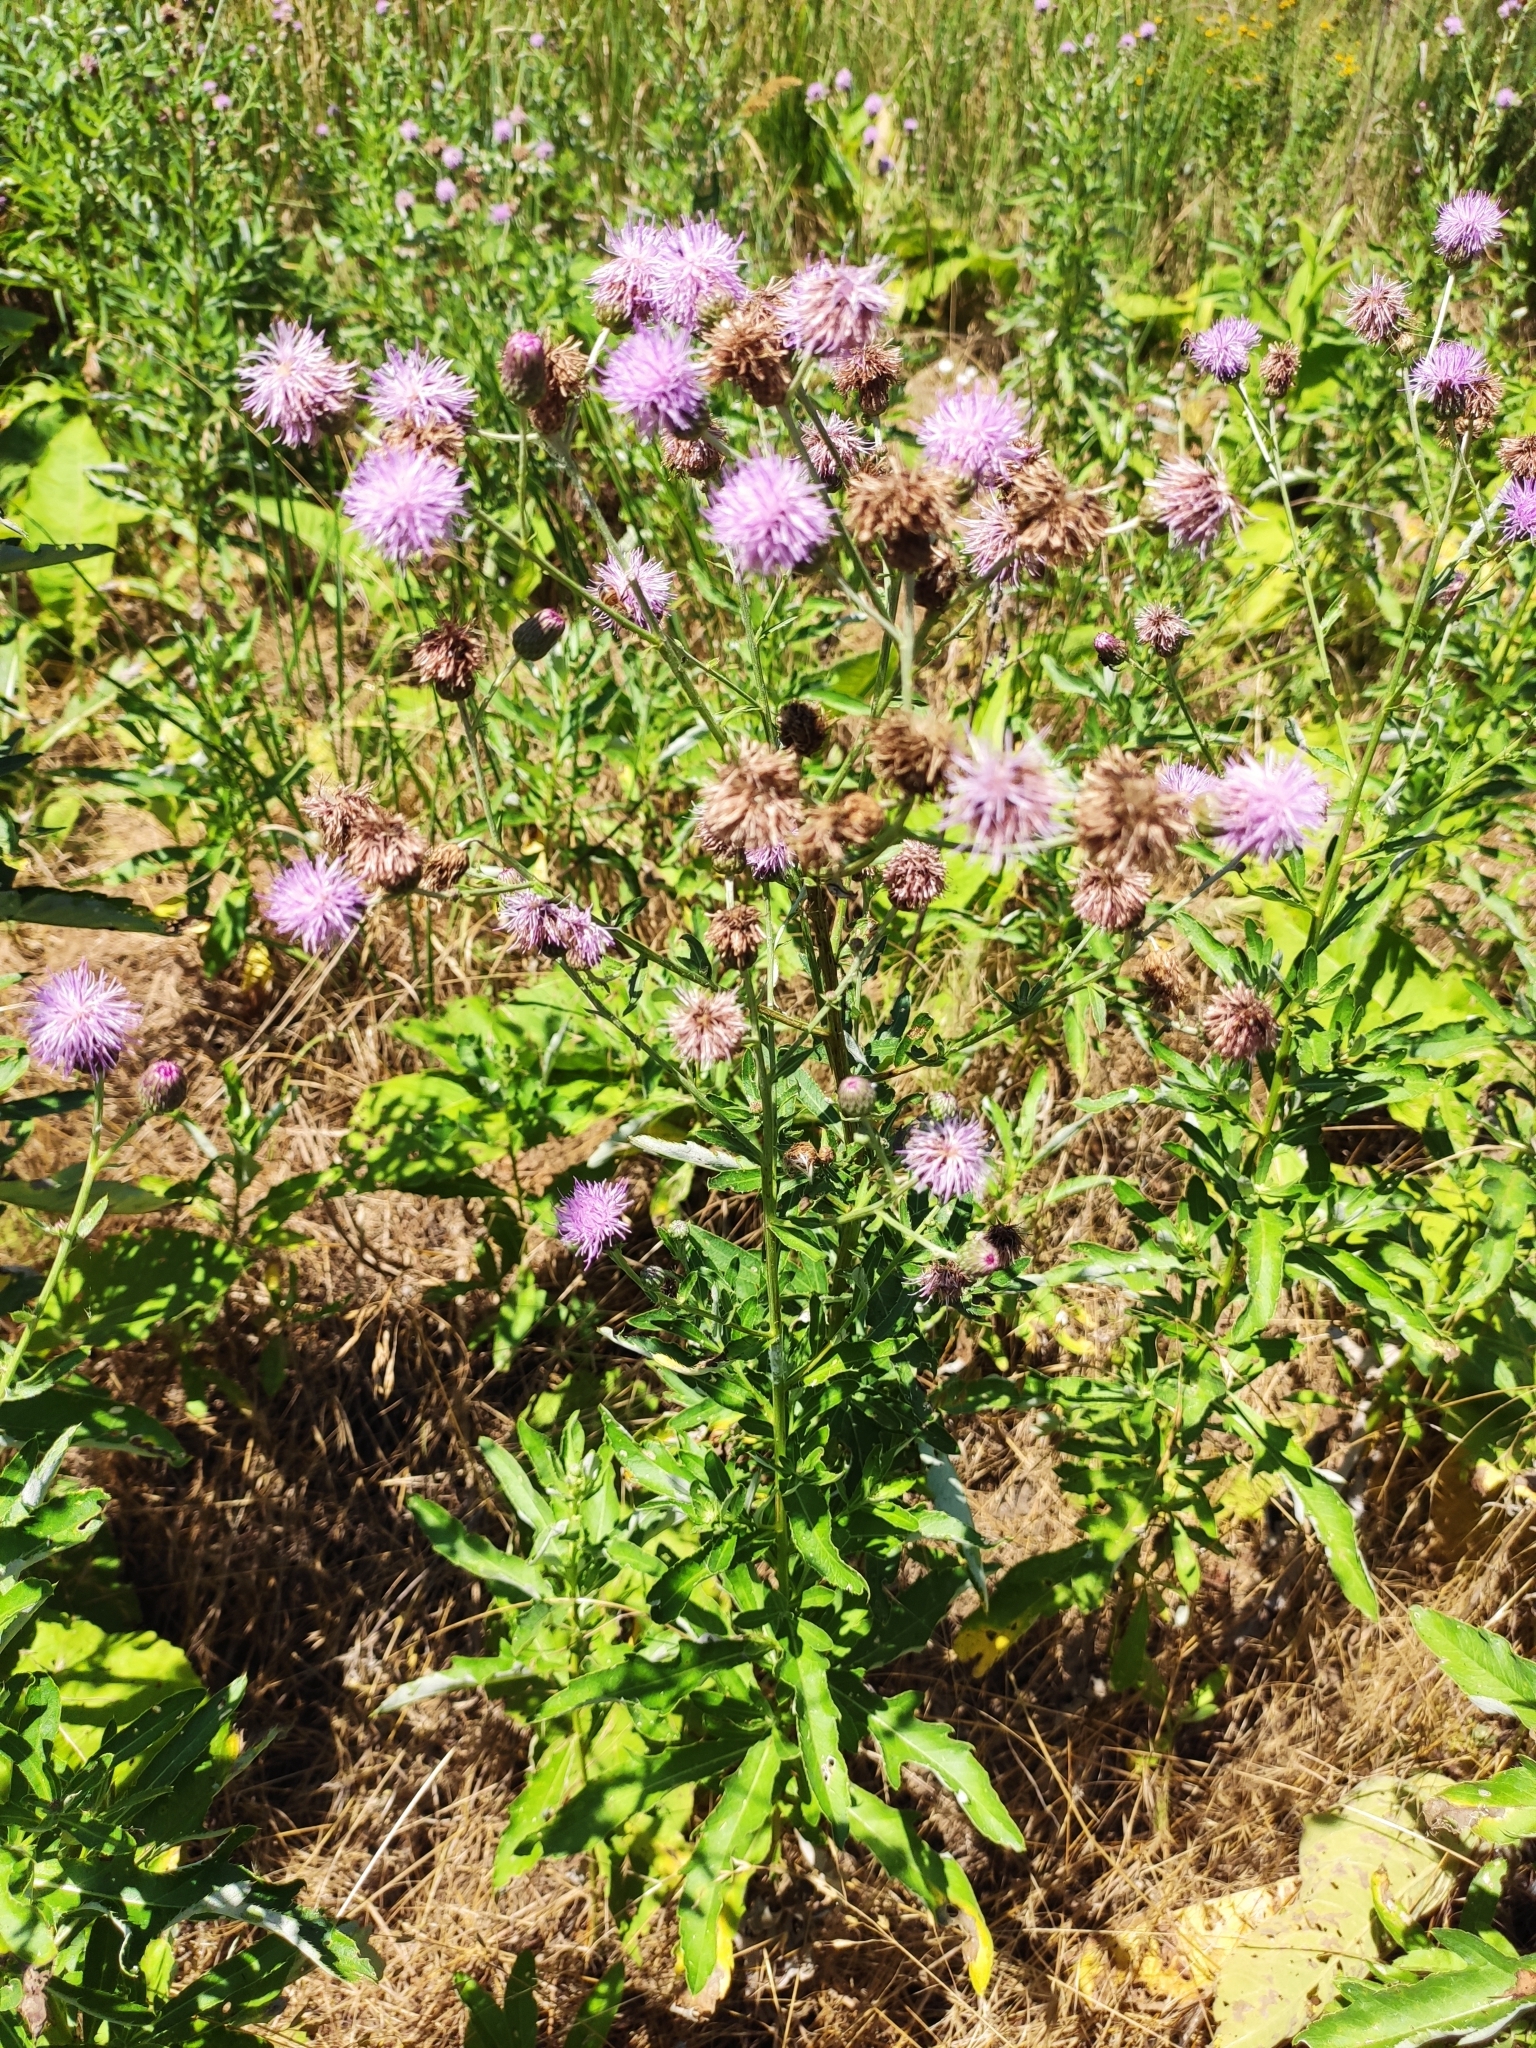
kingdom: Plantae
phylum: Tracheophyta
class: Magnoliopsida
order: Asterales
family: Asteraceae
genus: Cirsium
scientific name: Cirsium arvense
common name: Creeping thistle
